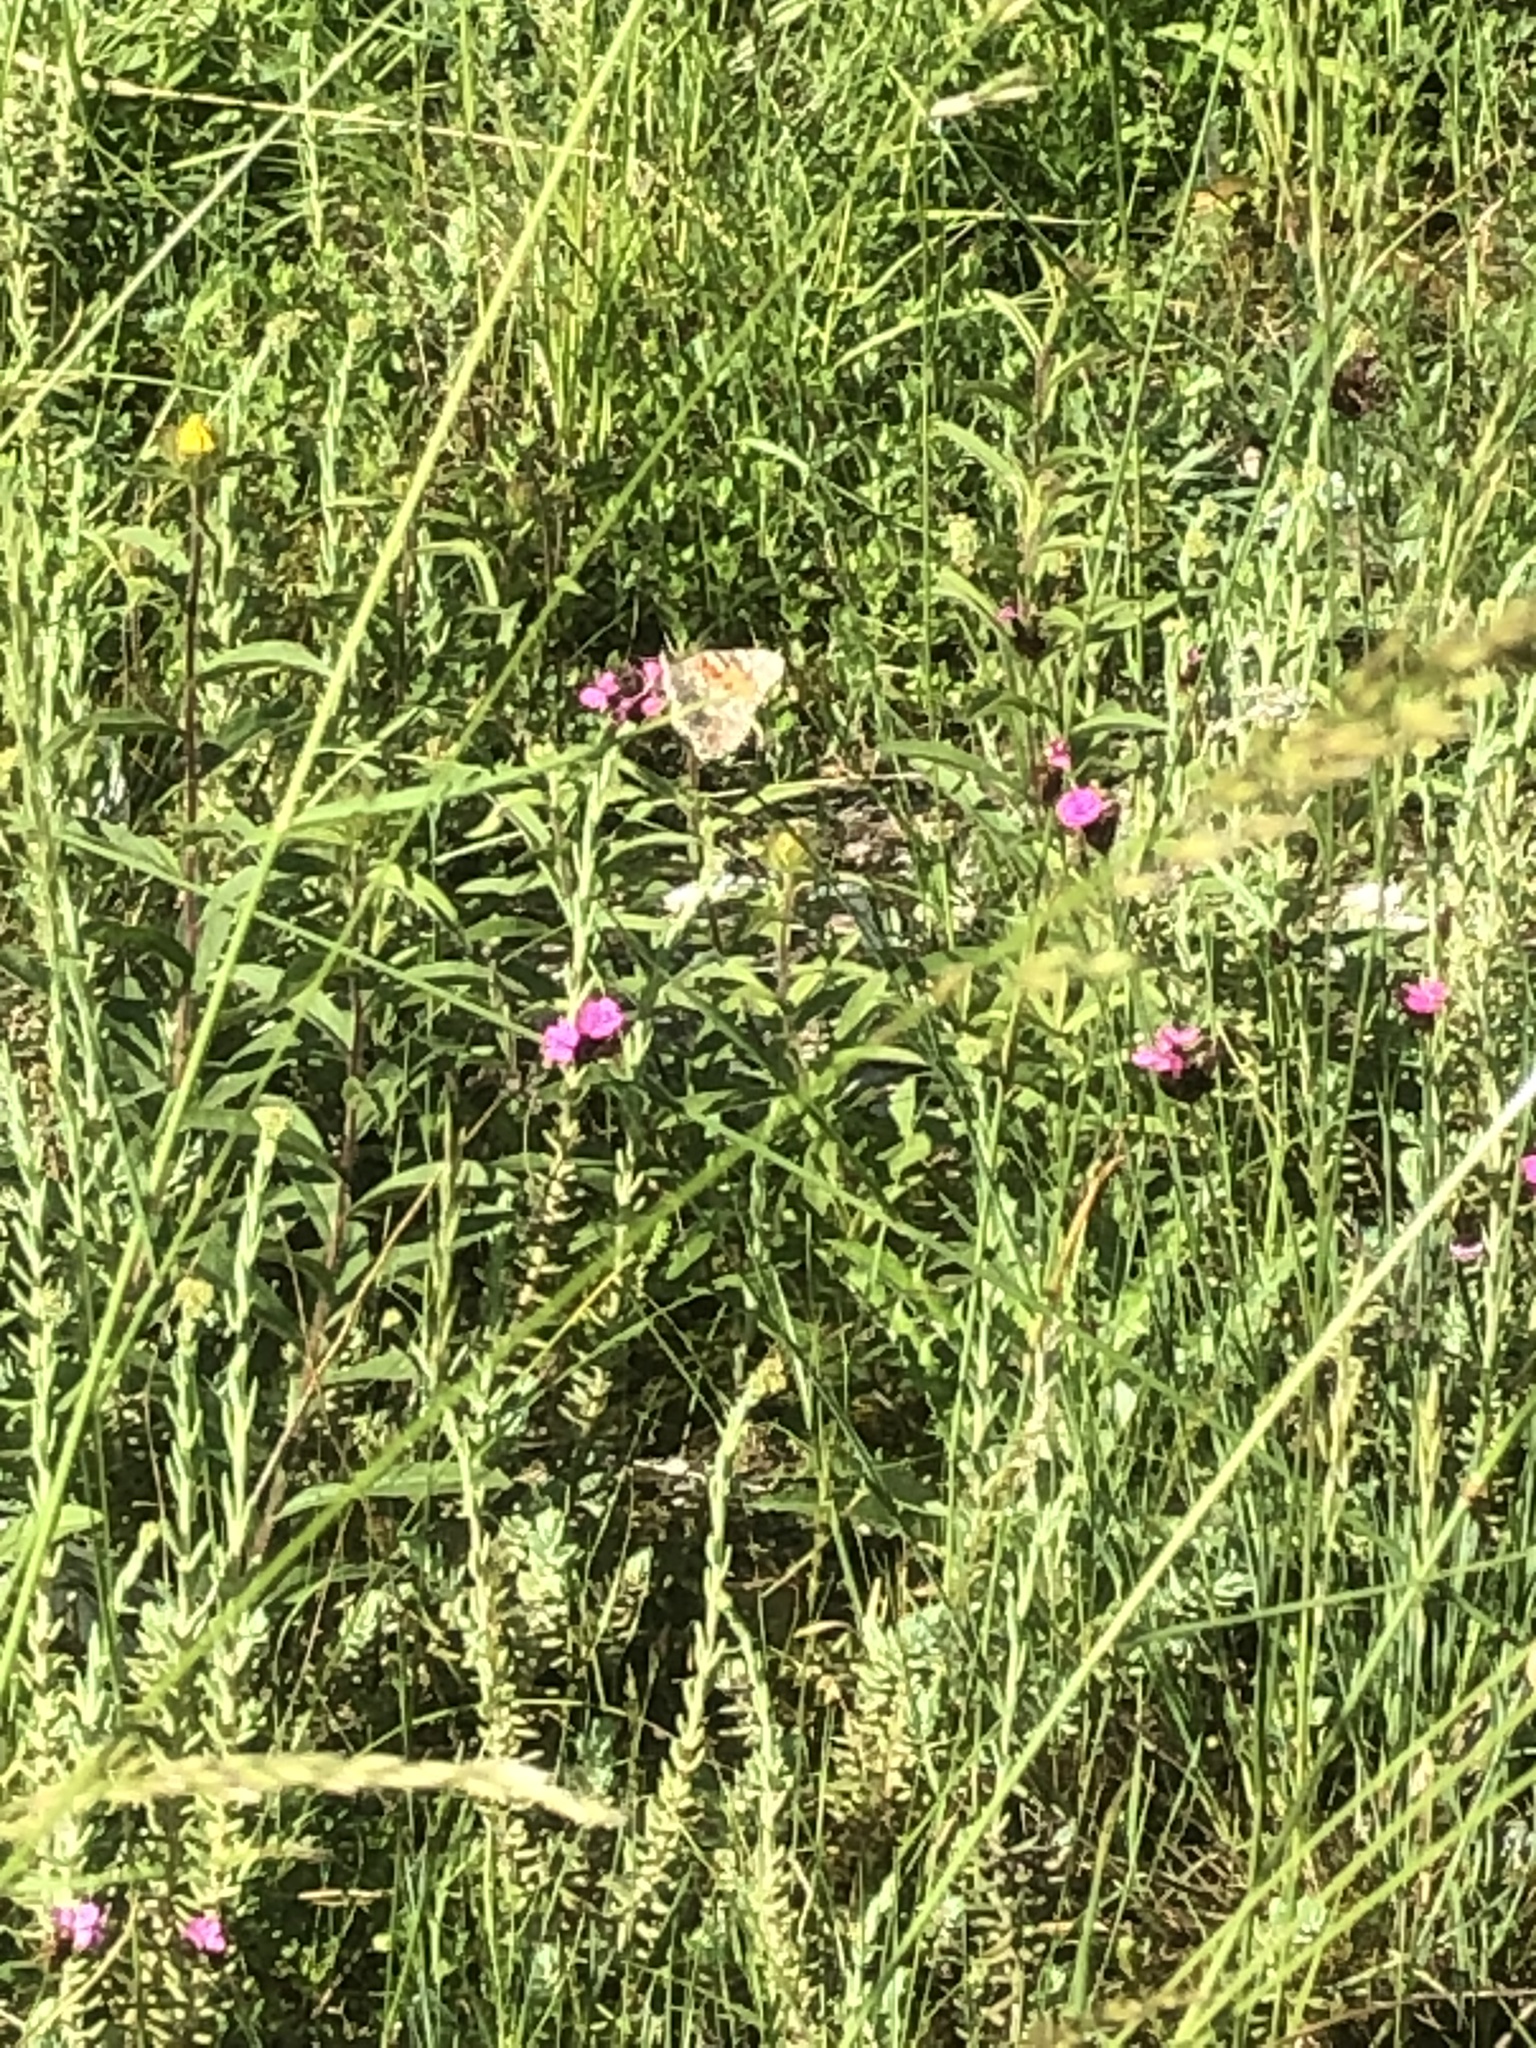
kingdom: Animalia
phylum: Arthropoda
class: Insecta
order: Lepidoptera
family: Nymphalidae
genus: Vanessa
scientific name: Vanessa cardui
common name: Painted lady
